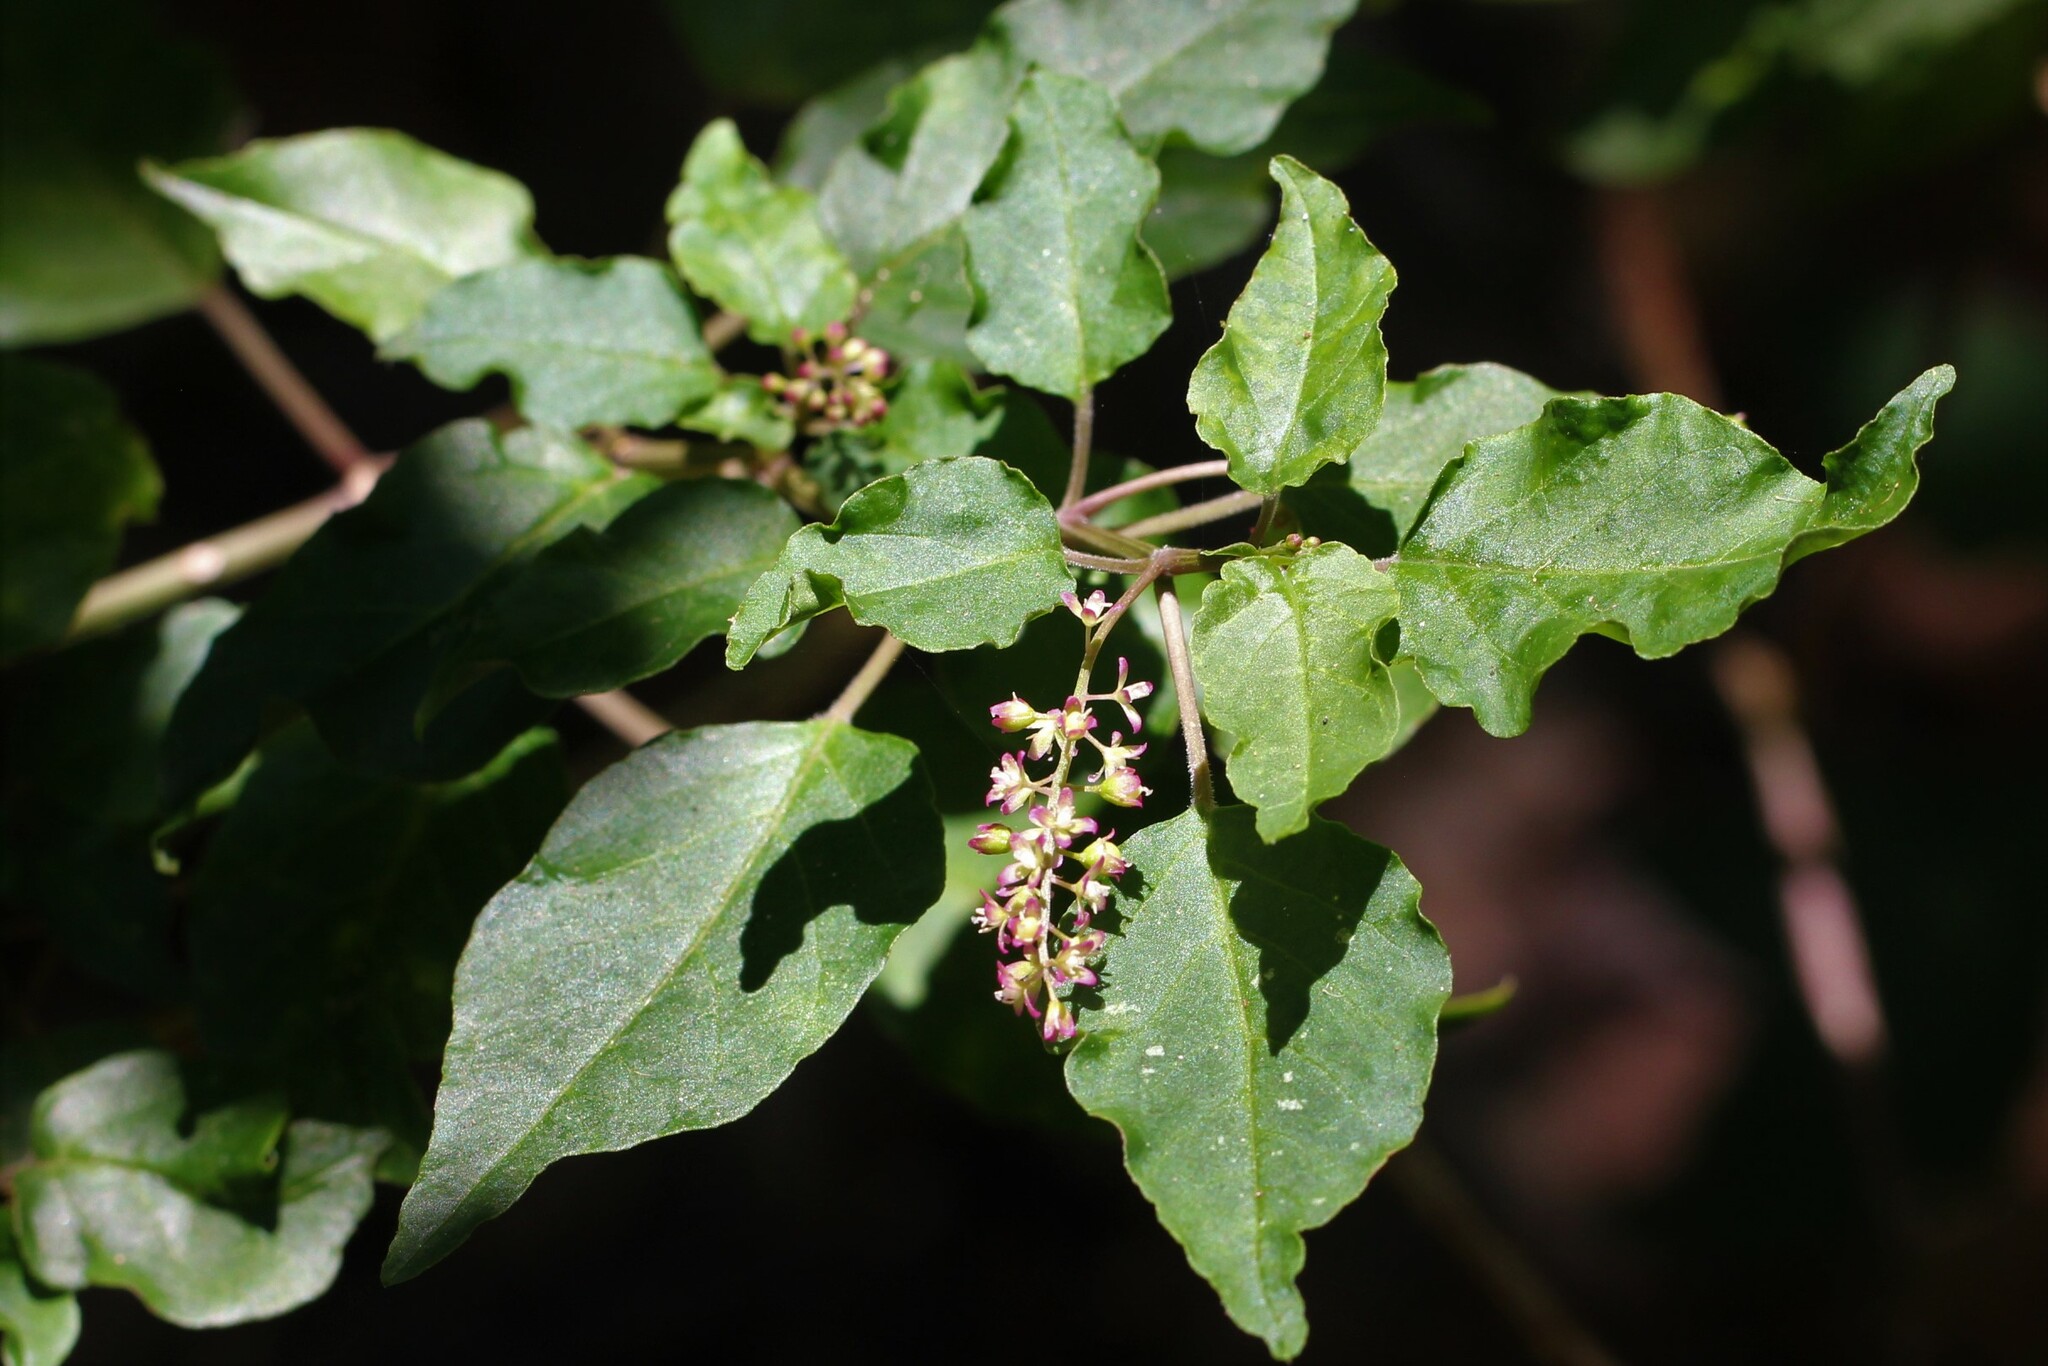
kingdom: Plantae
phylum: Tracheophyta
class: Magnoliopsida
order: Caryophyllales
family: Phytolaccaceae
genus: Rivina
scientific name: Rivina humilis
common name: Rougeplant
